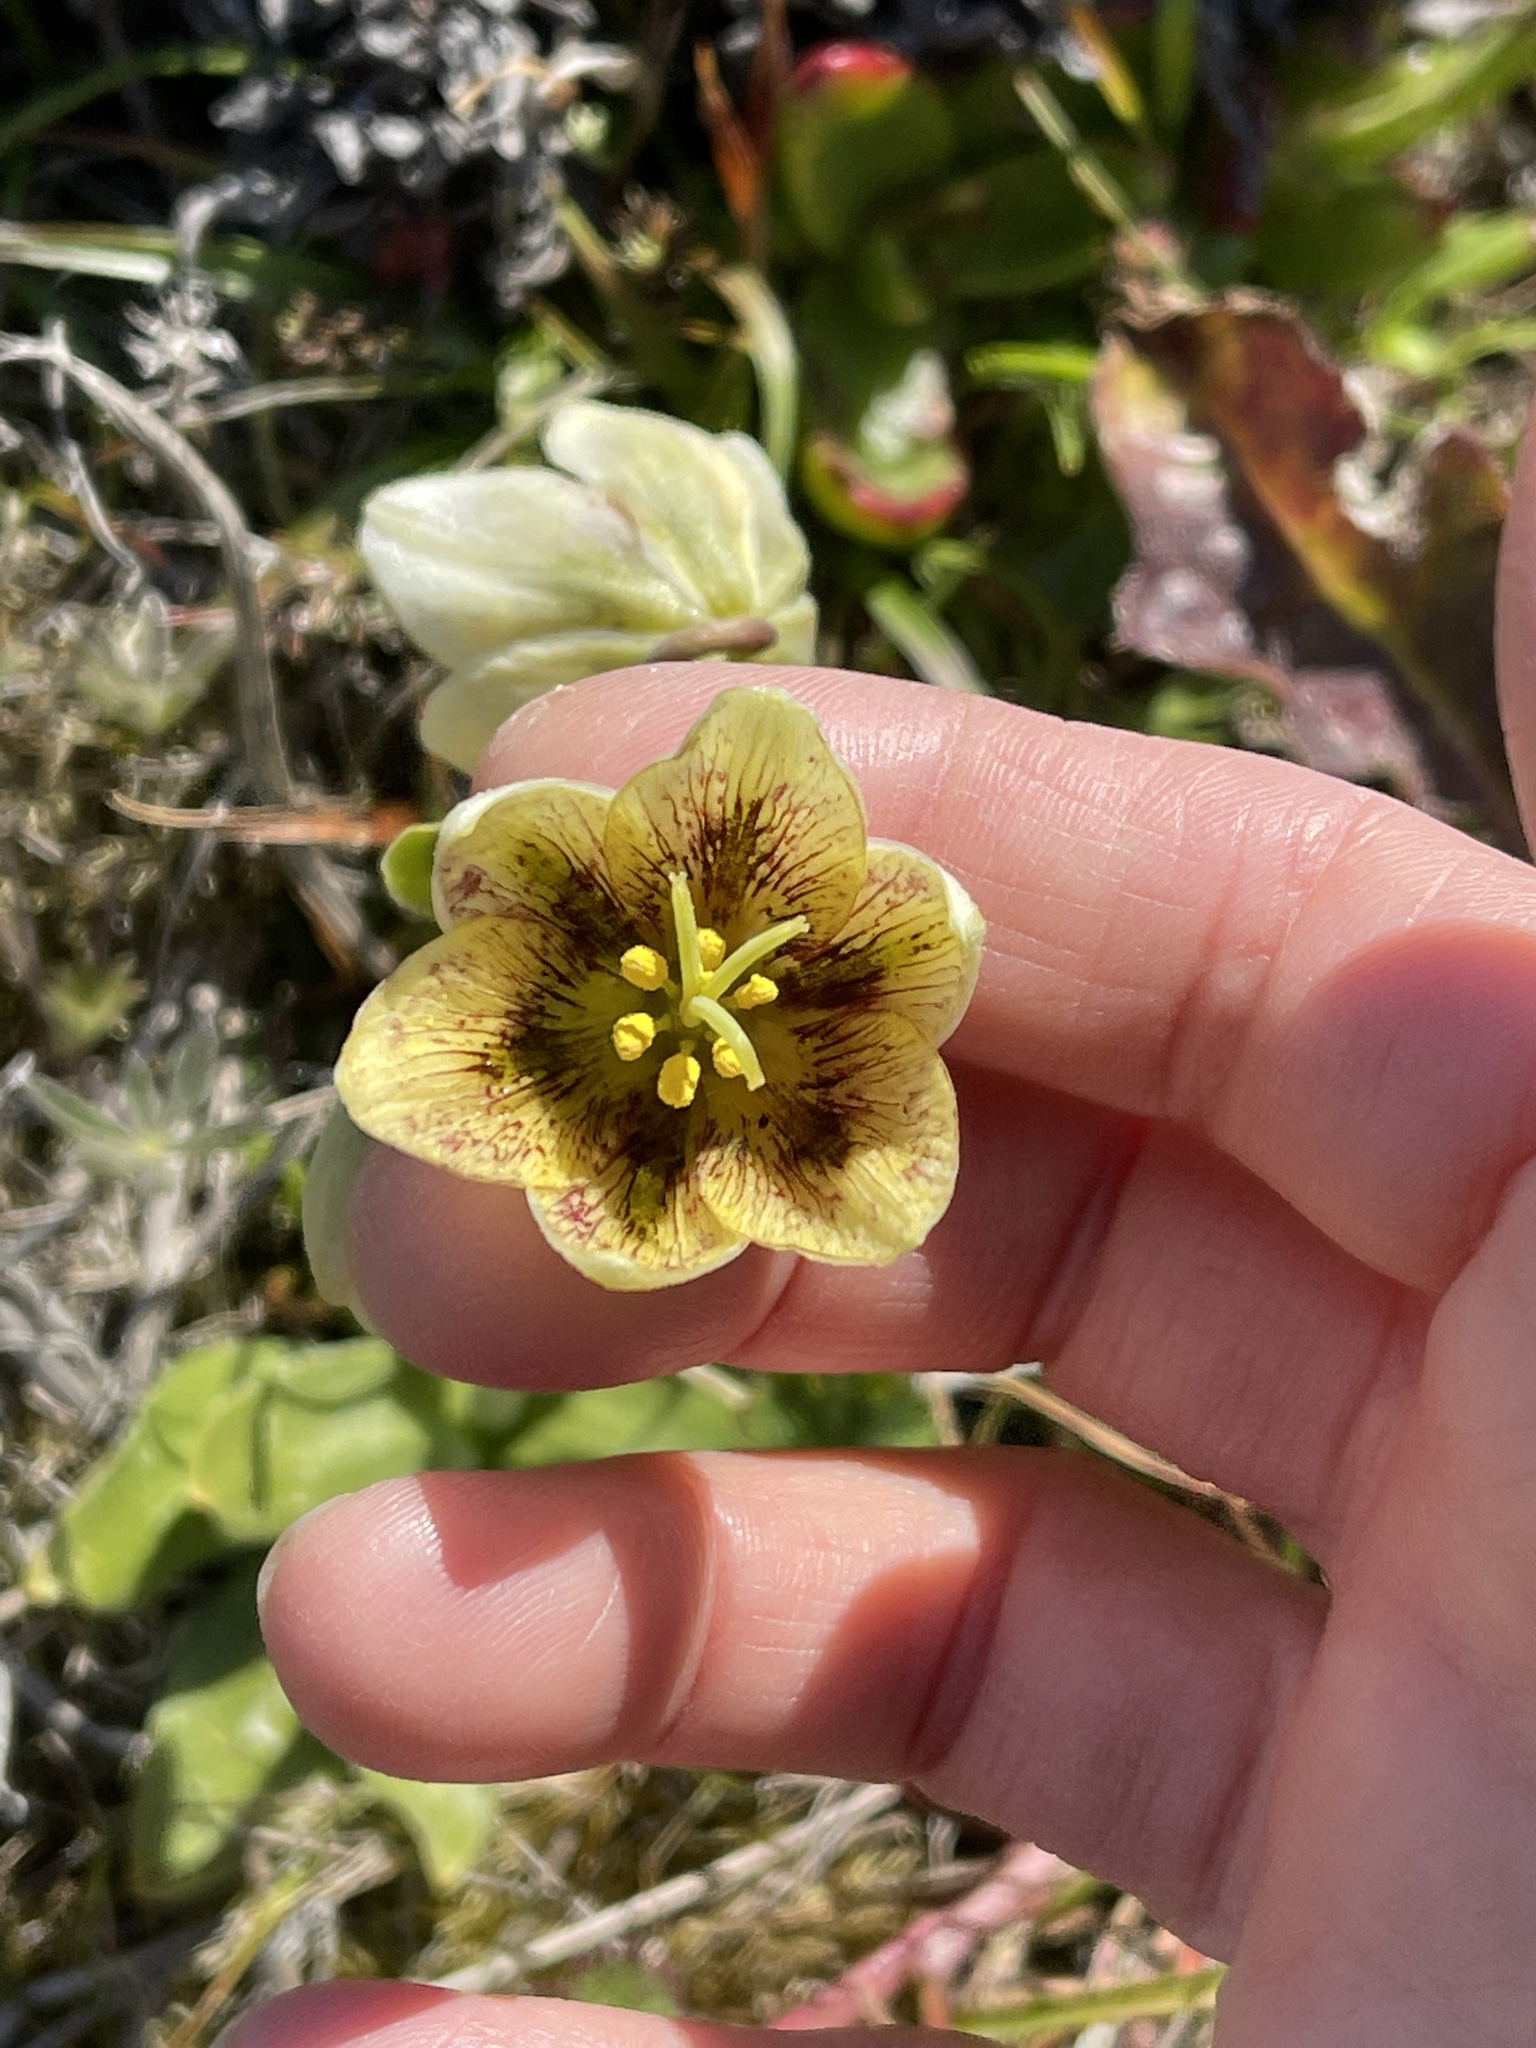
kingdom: Plantae
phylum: Tracheophyta
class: Liliopsida
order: Liliales
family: Liliaceae
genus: Fritillaria
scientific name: Fritillaria liliacea
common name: Fragrant fritillary
